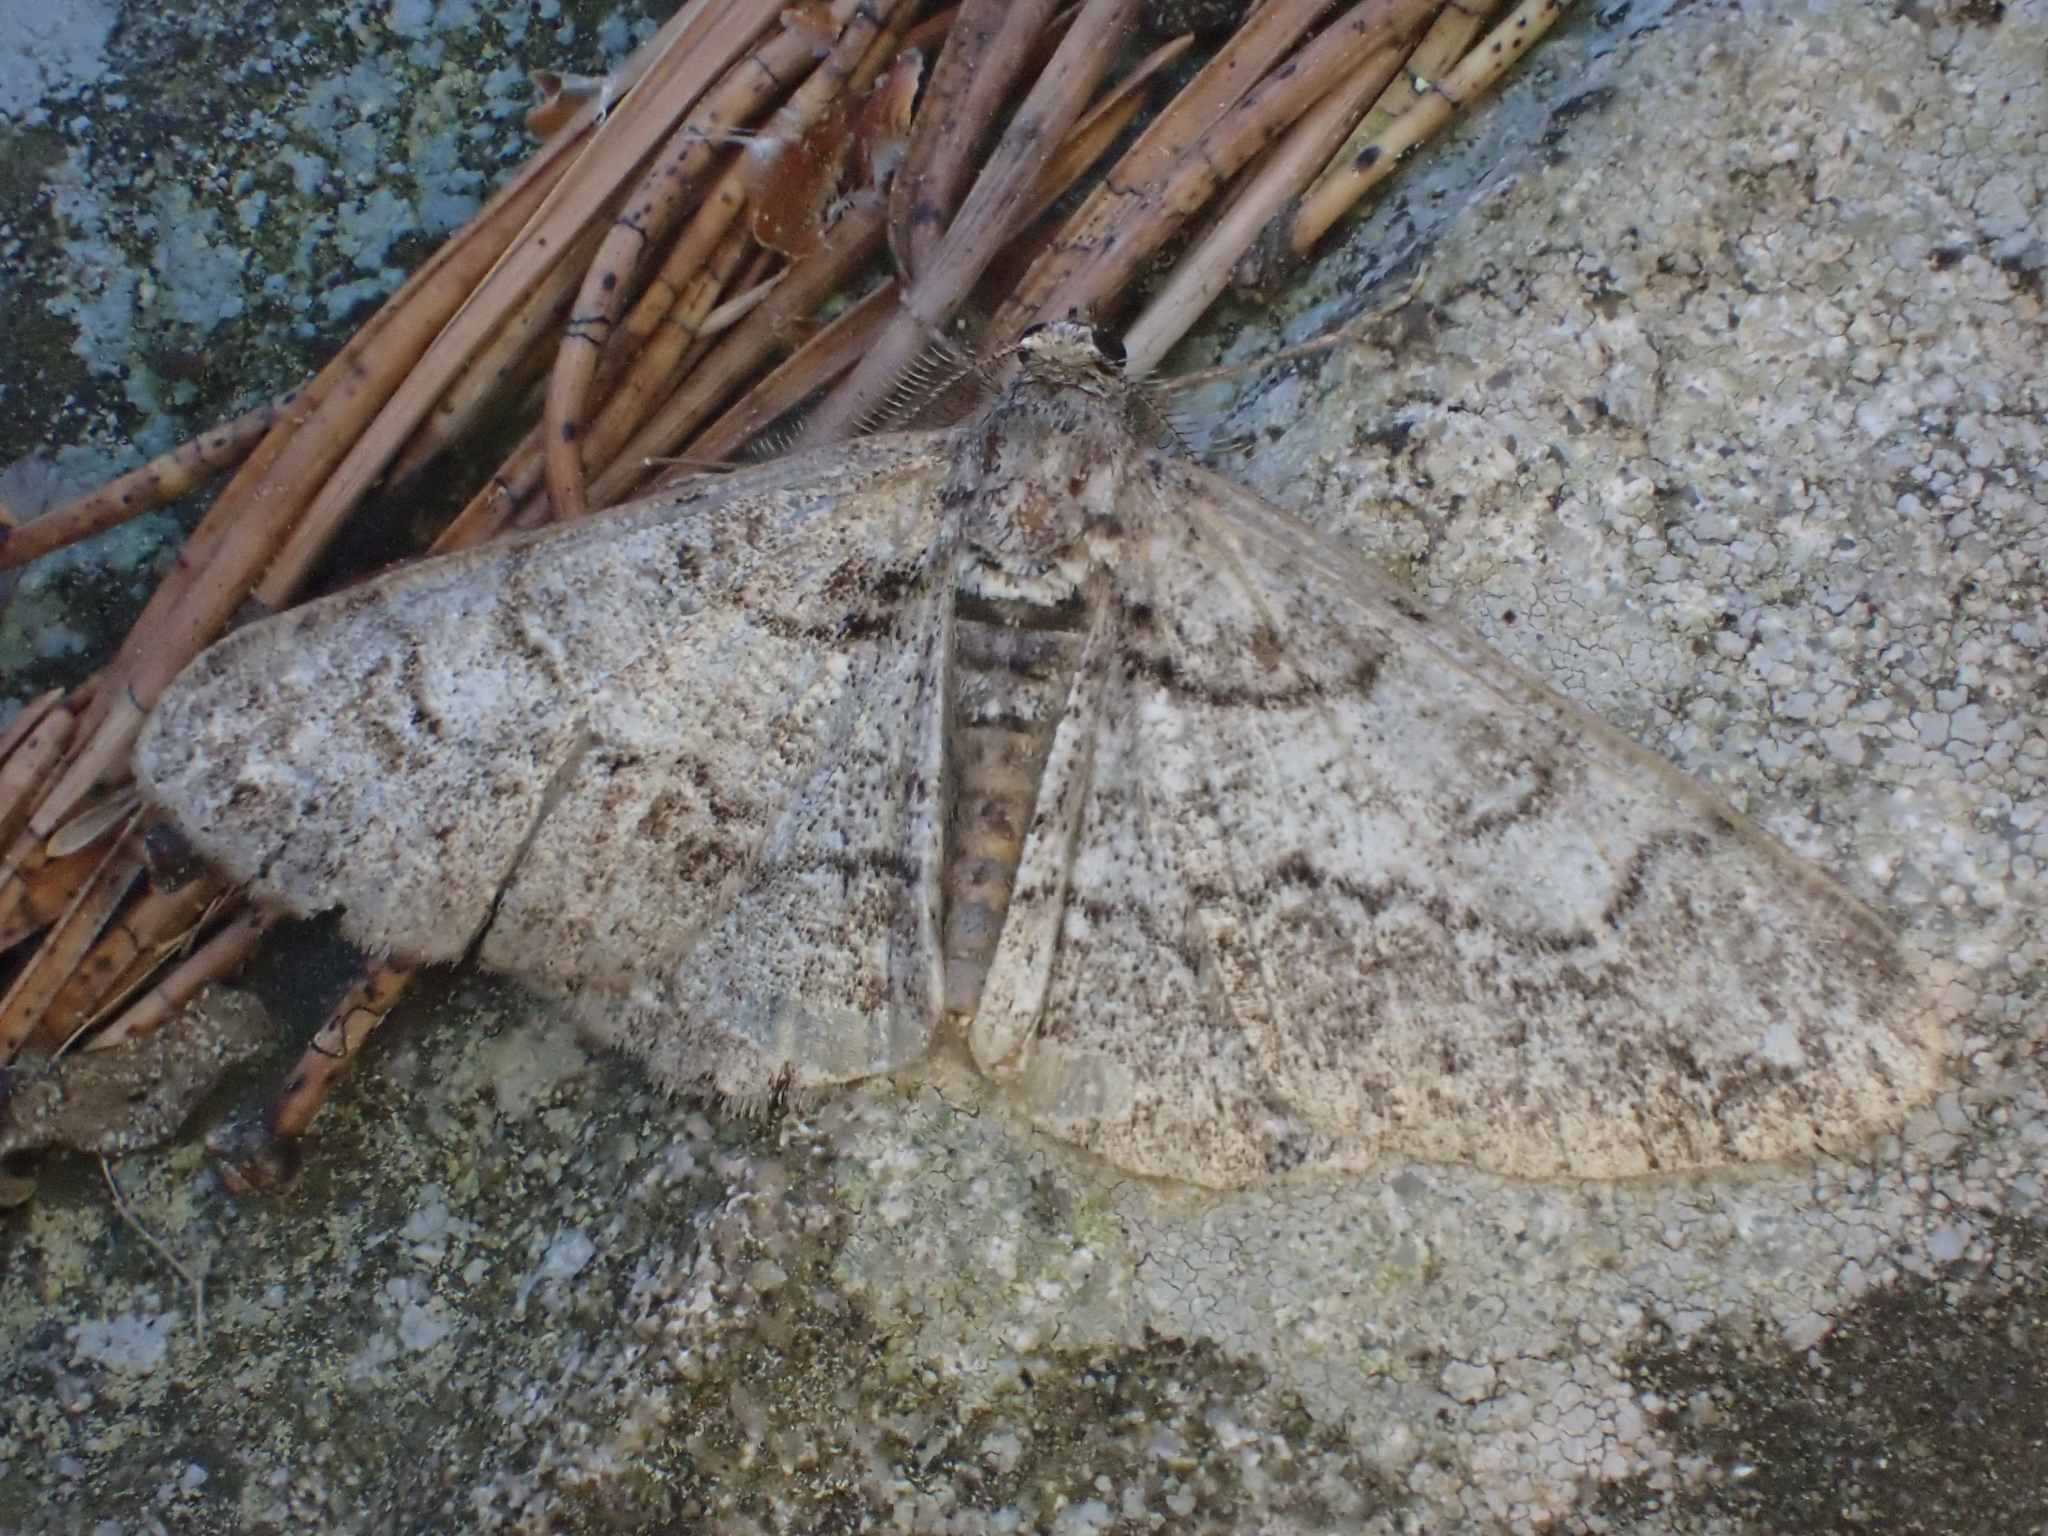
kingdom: Animalia
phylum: Arthropoda
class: Insecta
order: Lepidoptera
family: Geometridae
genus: Cleora
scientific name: Cleora cinctaria
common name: Ringed carpet
